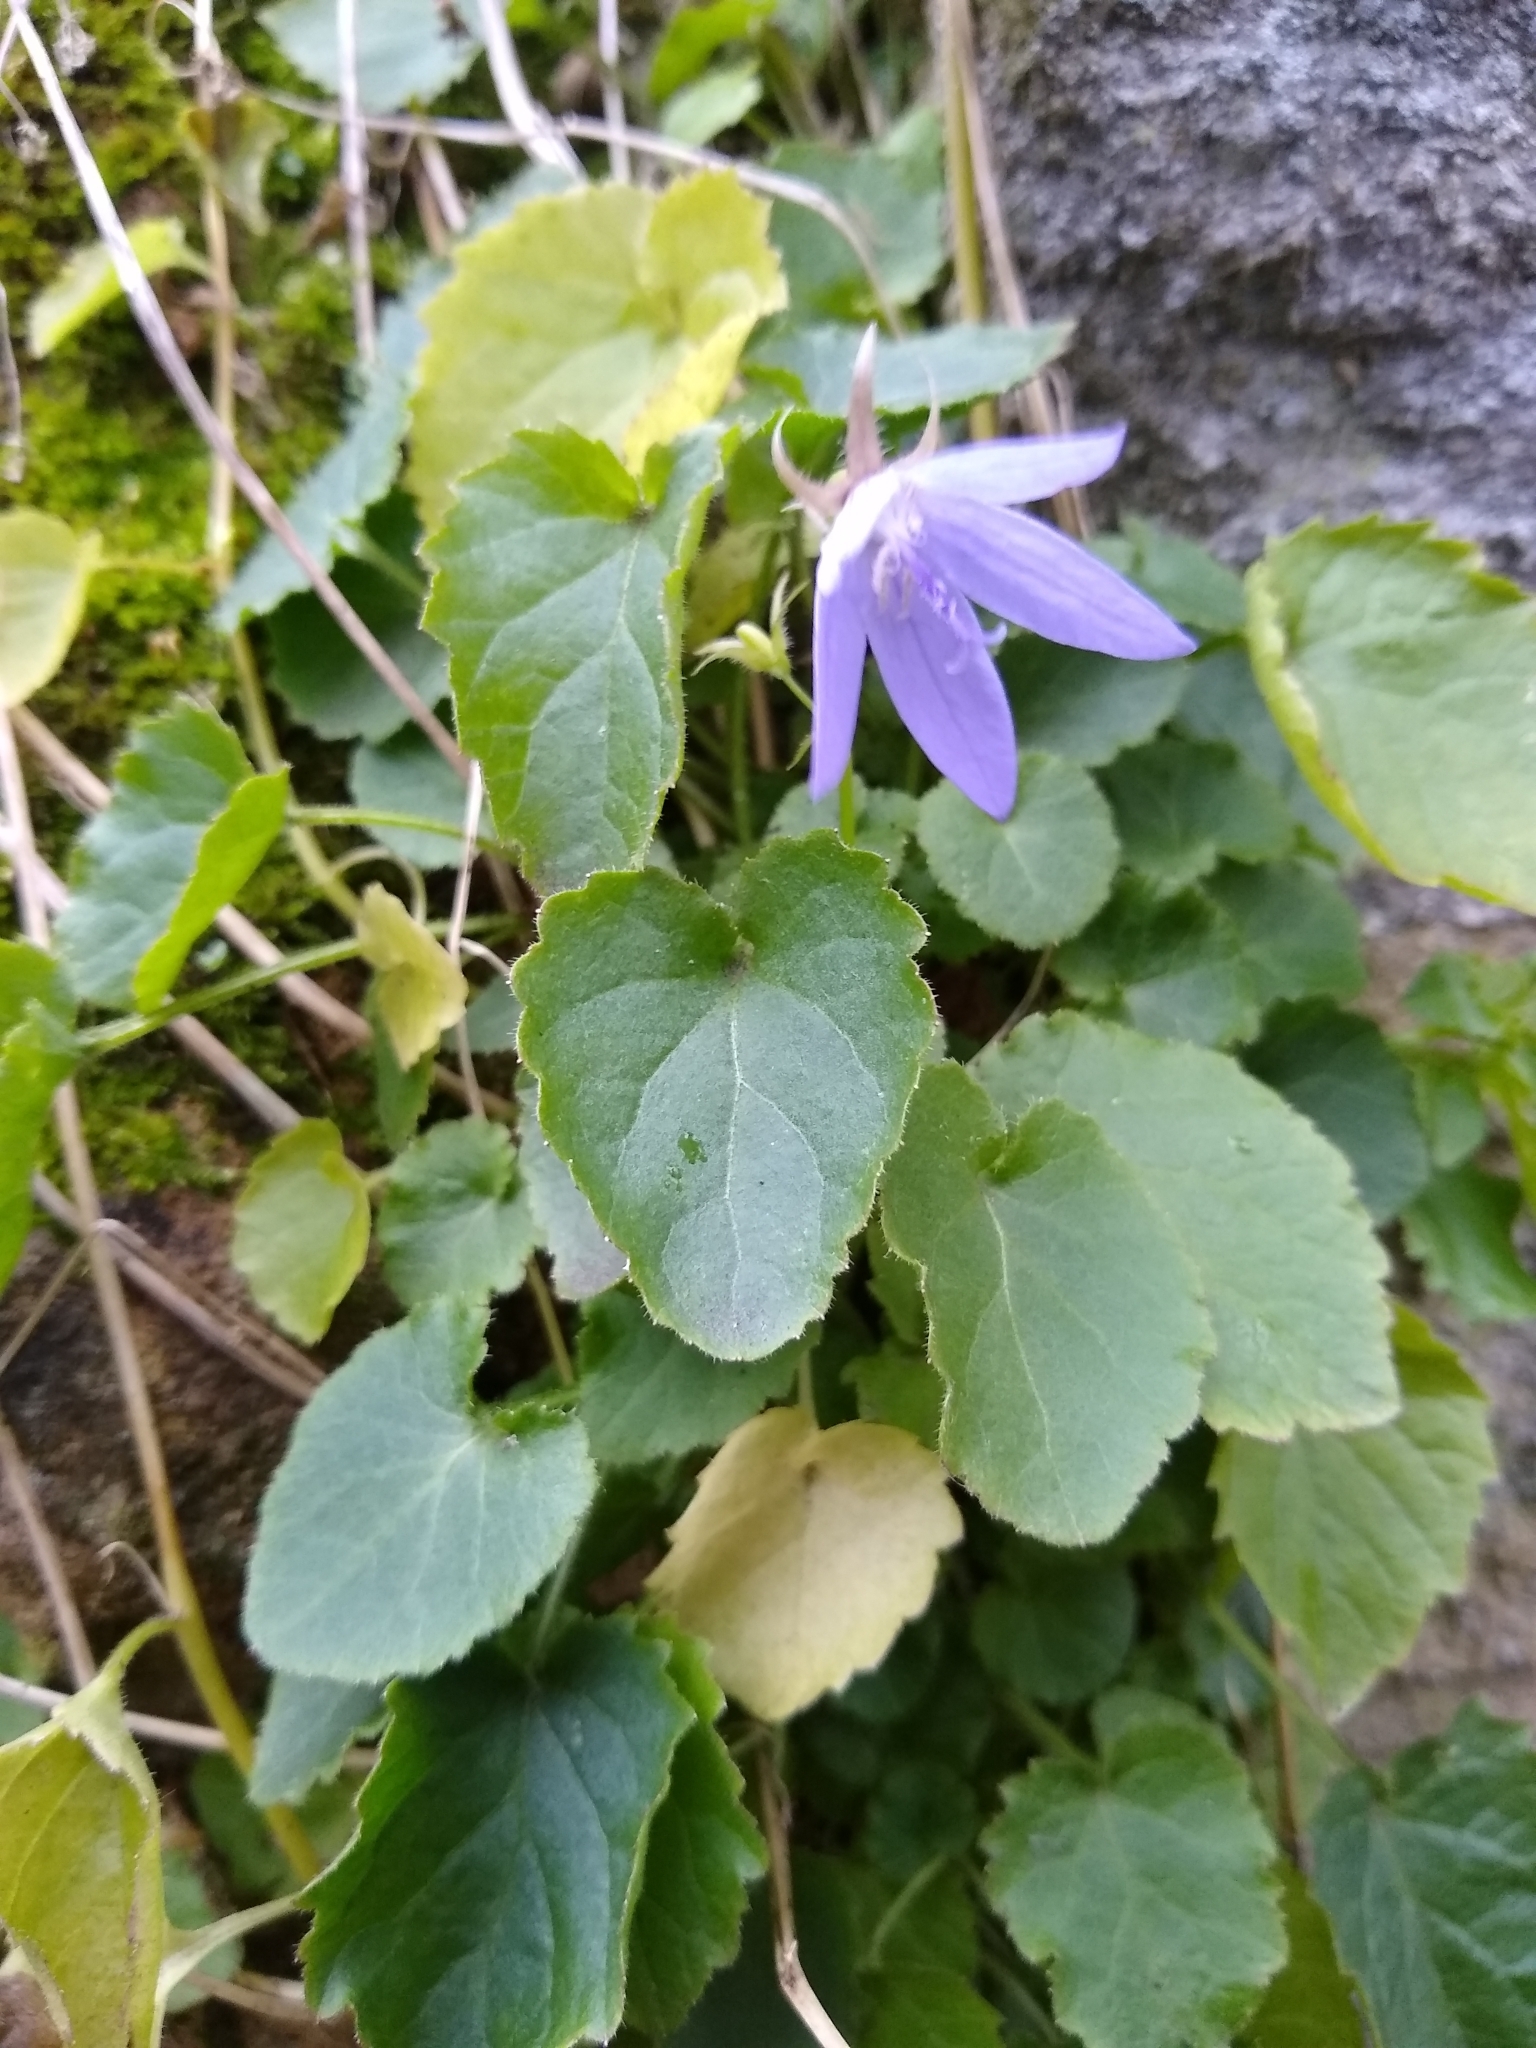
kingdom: Plantae
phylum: Tracheophyta
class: Magnoliopsida
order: Asterales
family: Campanulaceae
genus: Campanula
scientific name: Campanula poscharskyana
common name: Trailing bellflower
